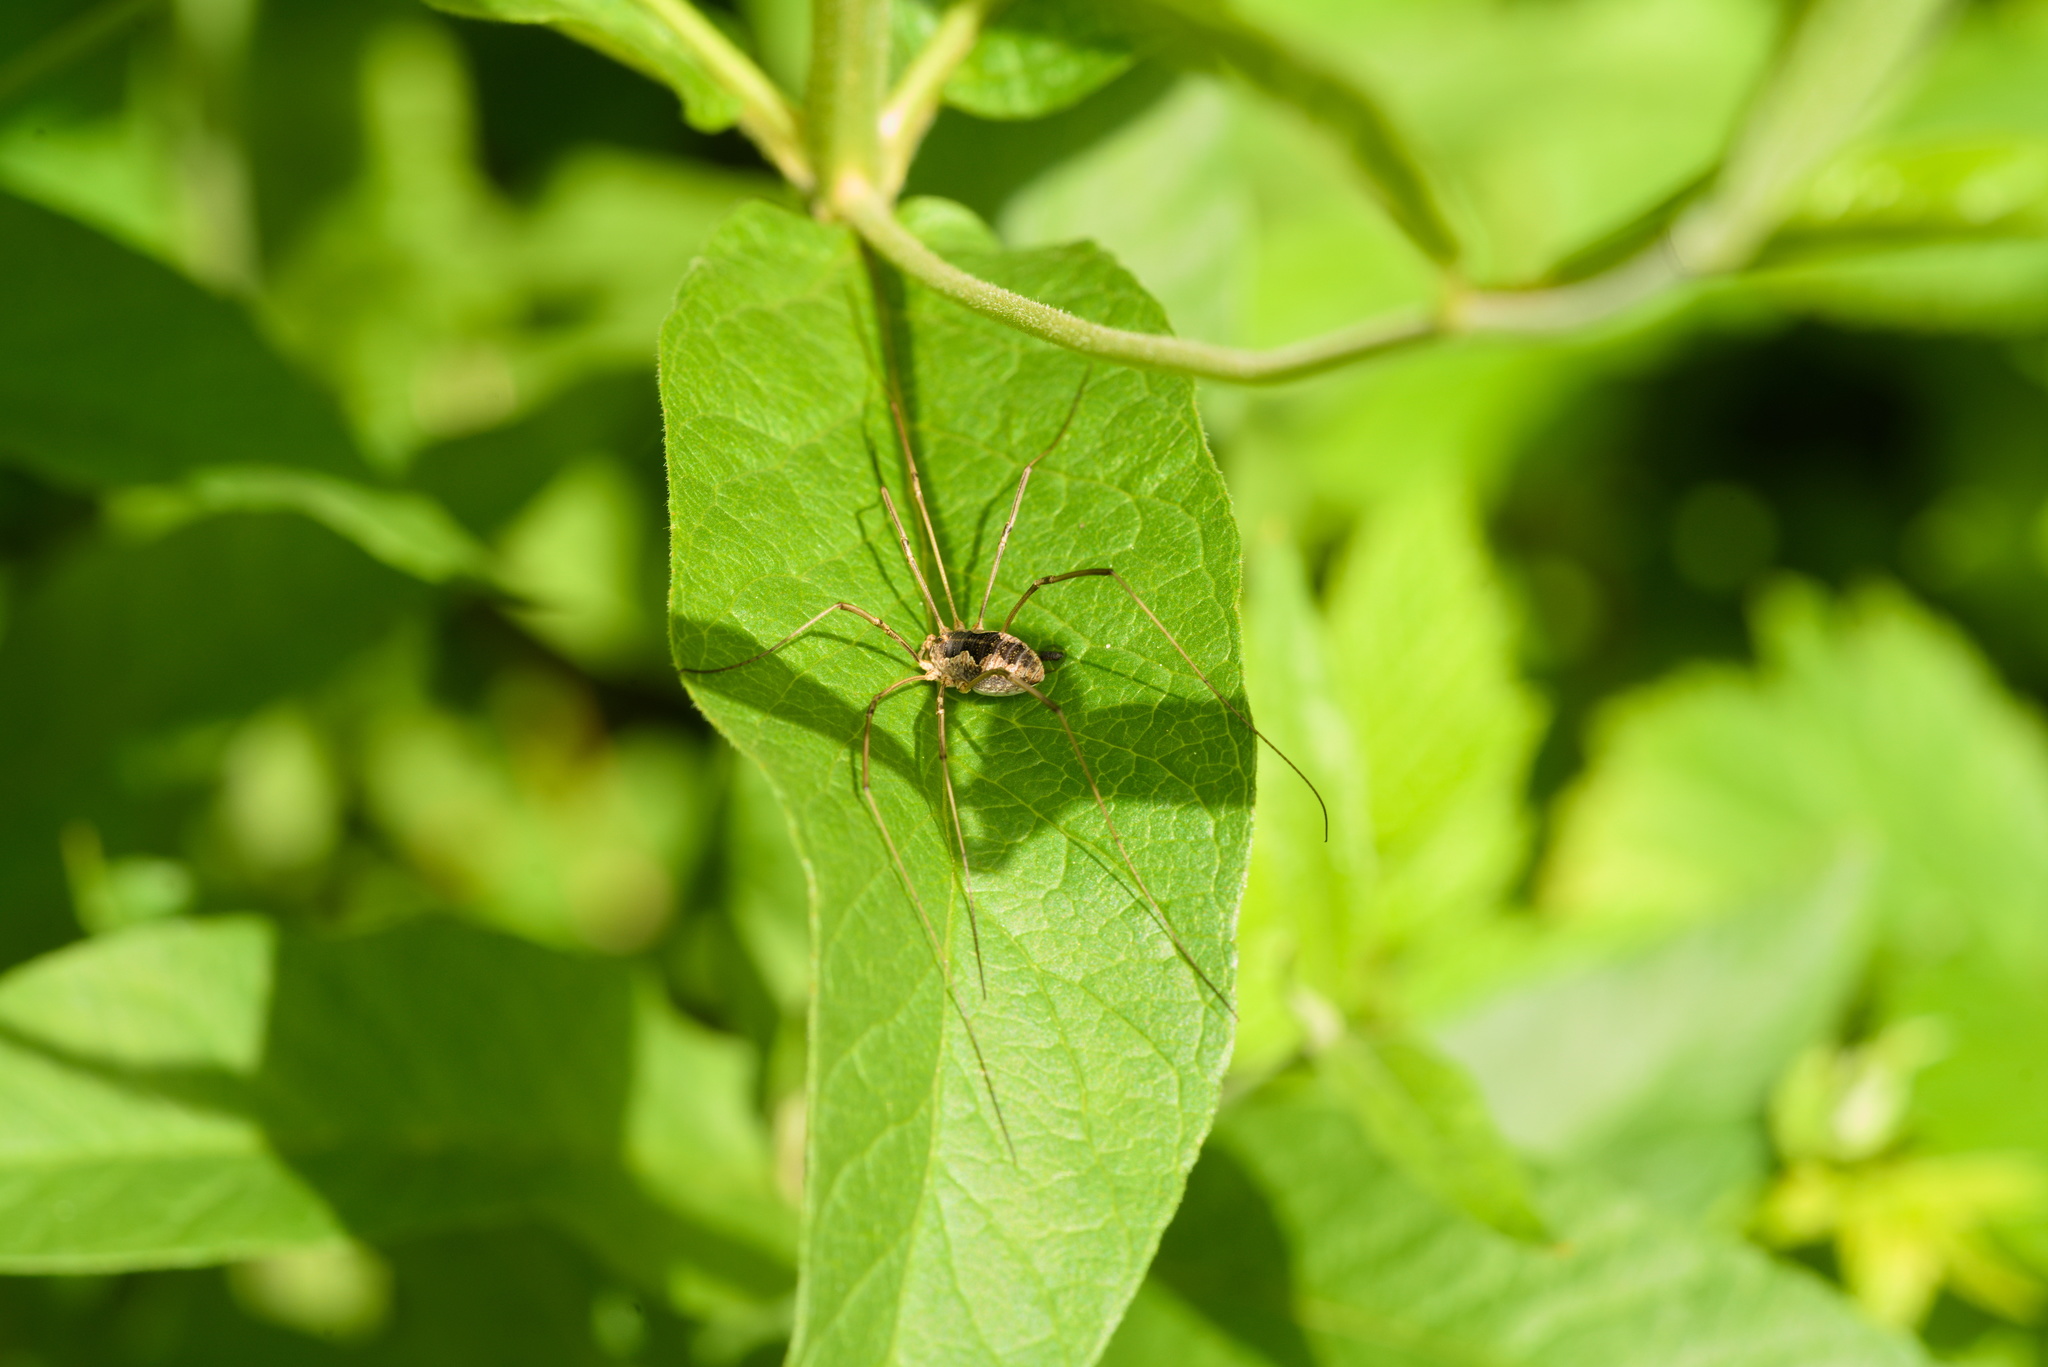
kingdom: Animalia
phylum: Arthropoda
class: Arachnida
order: Opiliones
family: Phalangiidae
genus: Phalangium
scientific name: Phalangium opilio
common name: Daddy longleg
